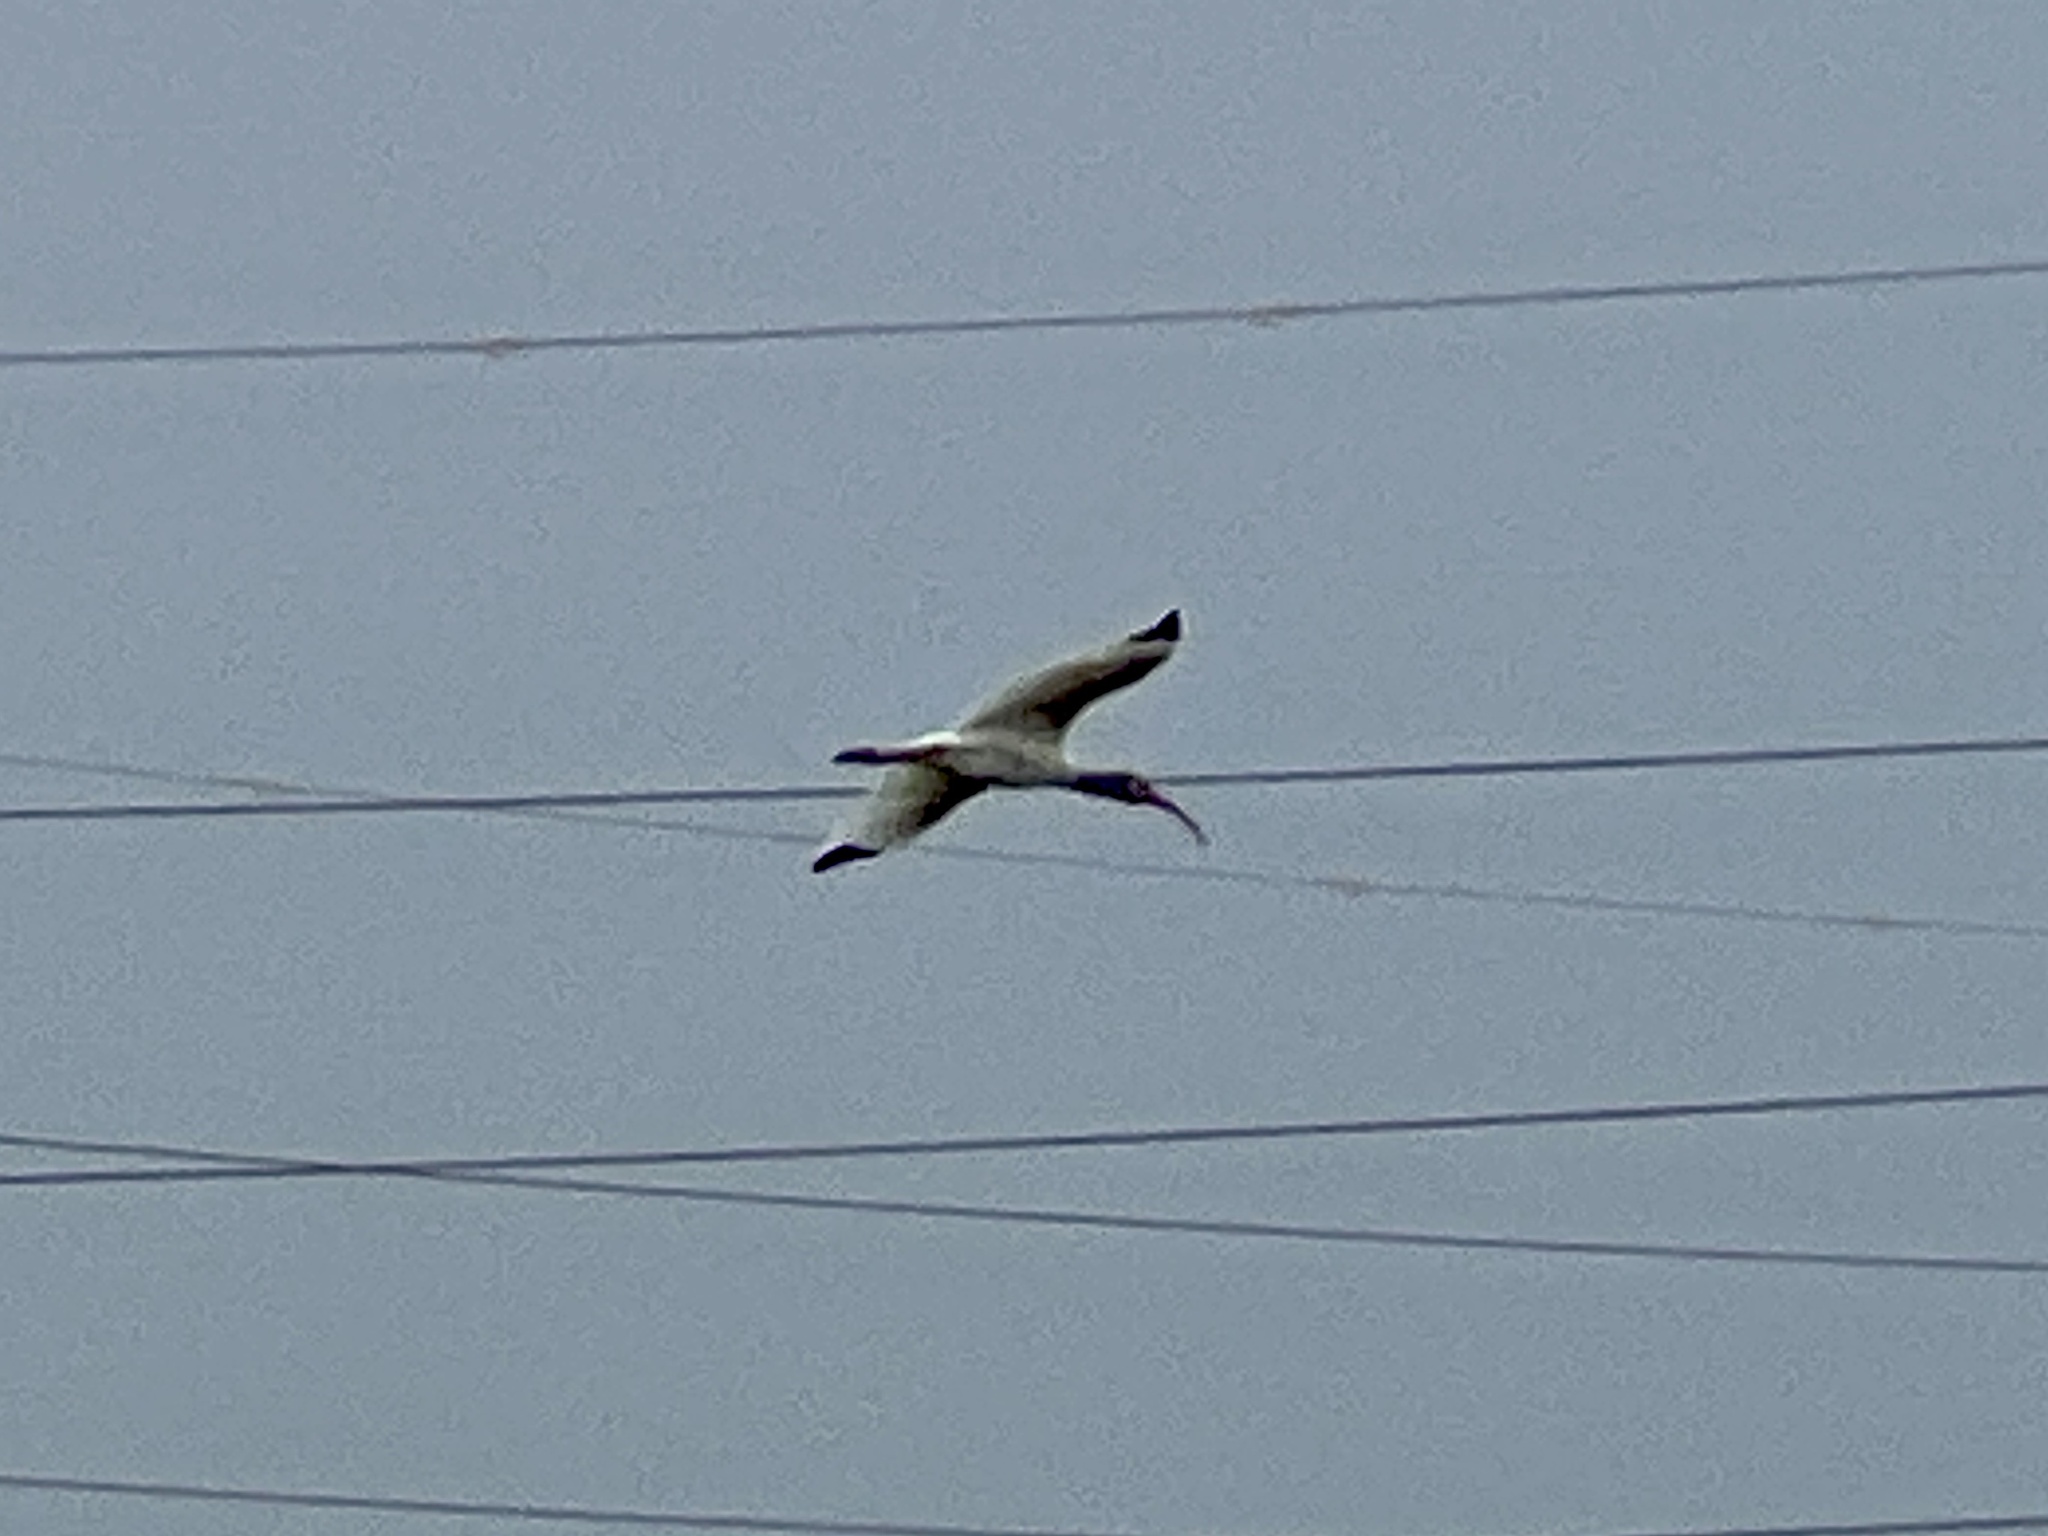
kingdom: Animalia
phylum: Chordata
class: Aves
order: Pelecaniformes
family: Threskiornithidae
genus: Eudocimus
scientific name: Eudocimus albus
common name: White ibis
